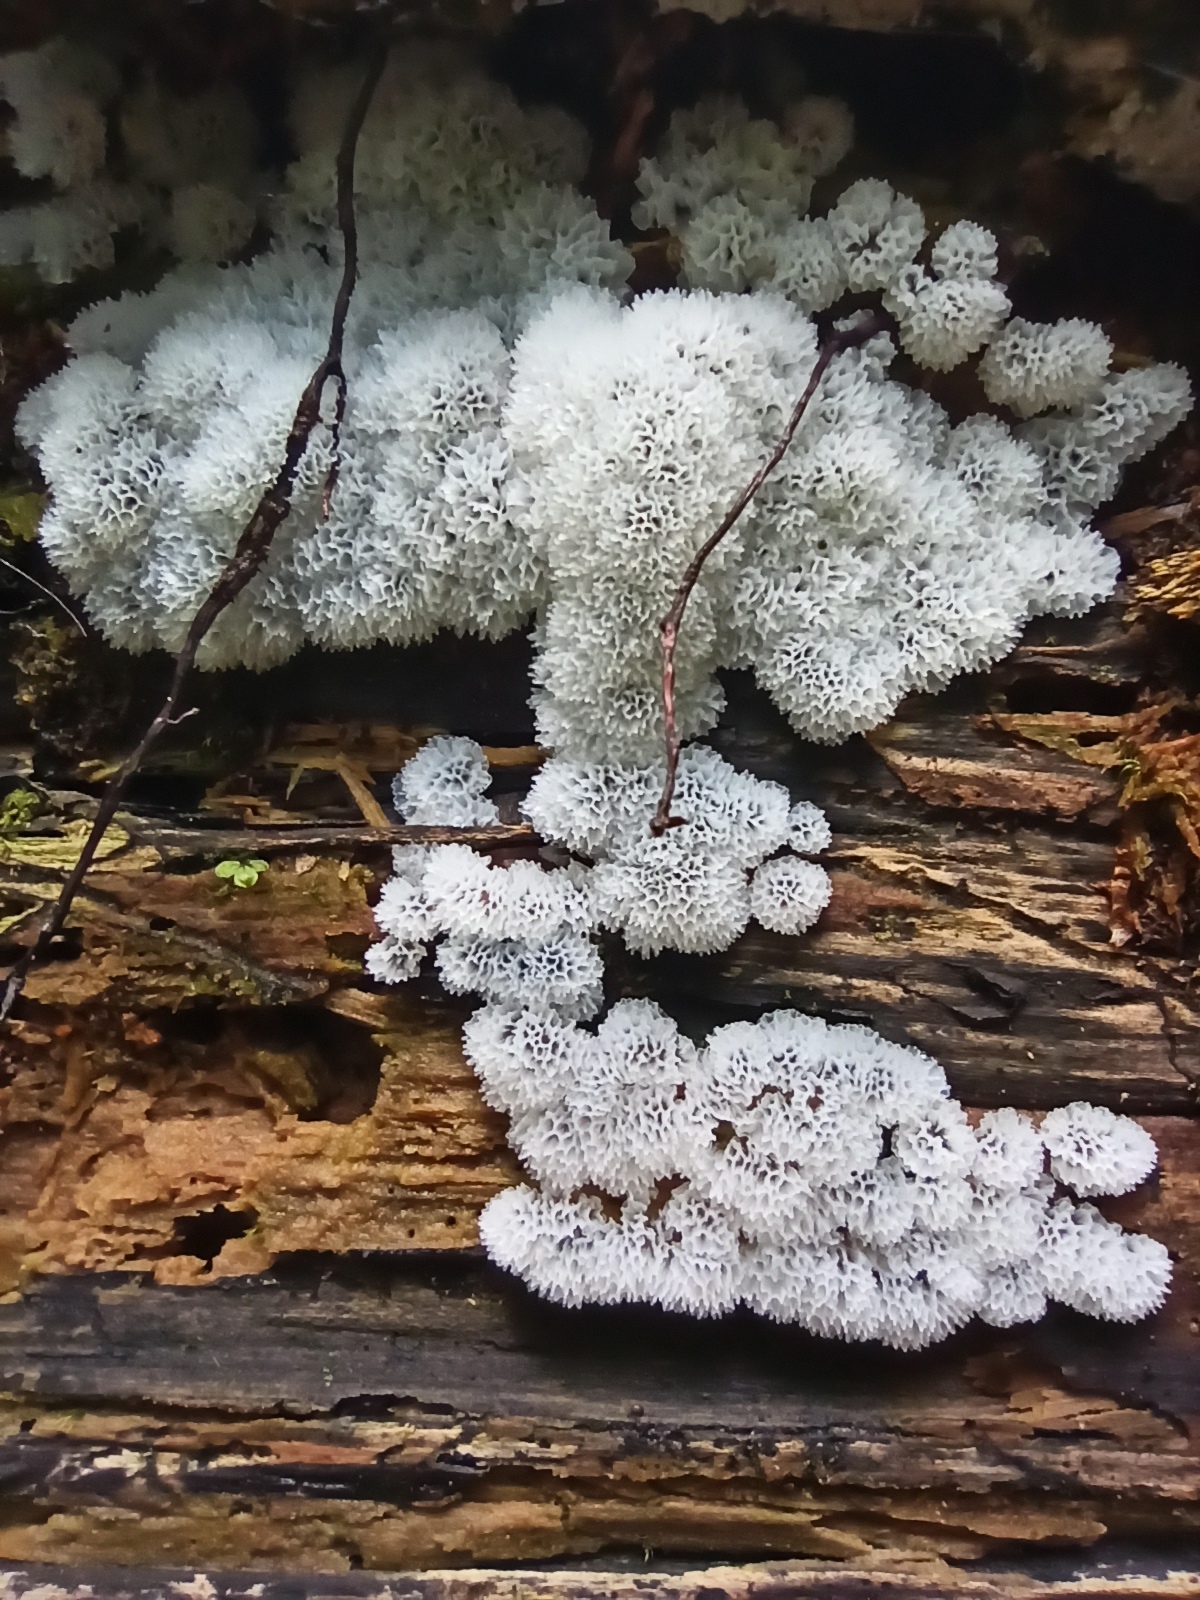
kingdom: Protozoa
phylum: Mycetozoa
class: Protosteliomycetes
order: Ceratiomyxales
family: Ceratiomyxaceae
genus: Ceratiomyxa
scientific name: Ceratiomyxa fruticulosa
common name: Honeycomb coral slime mold
